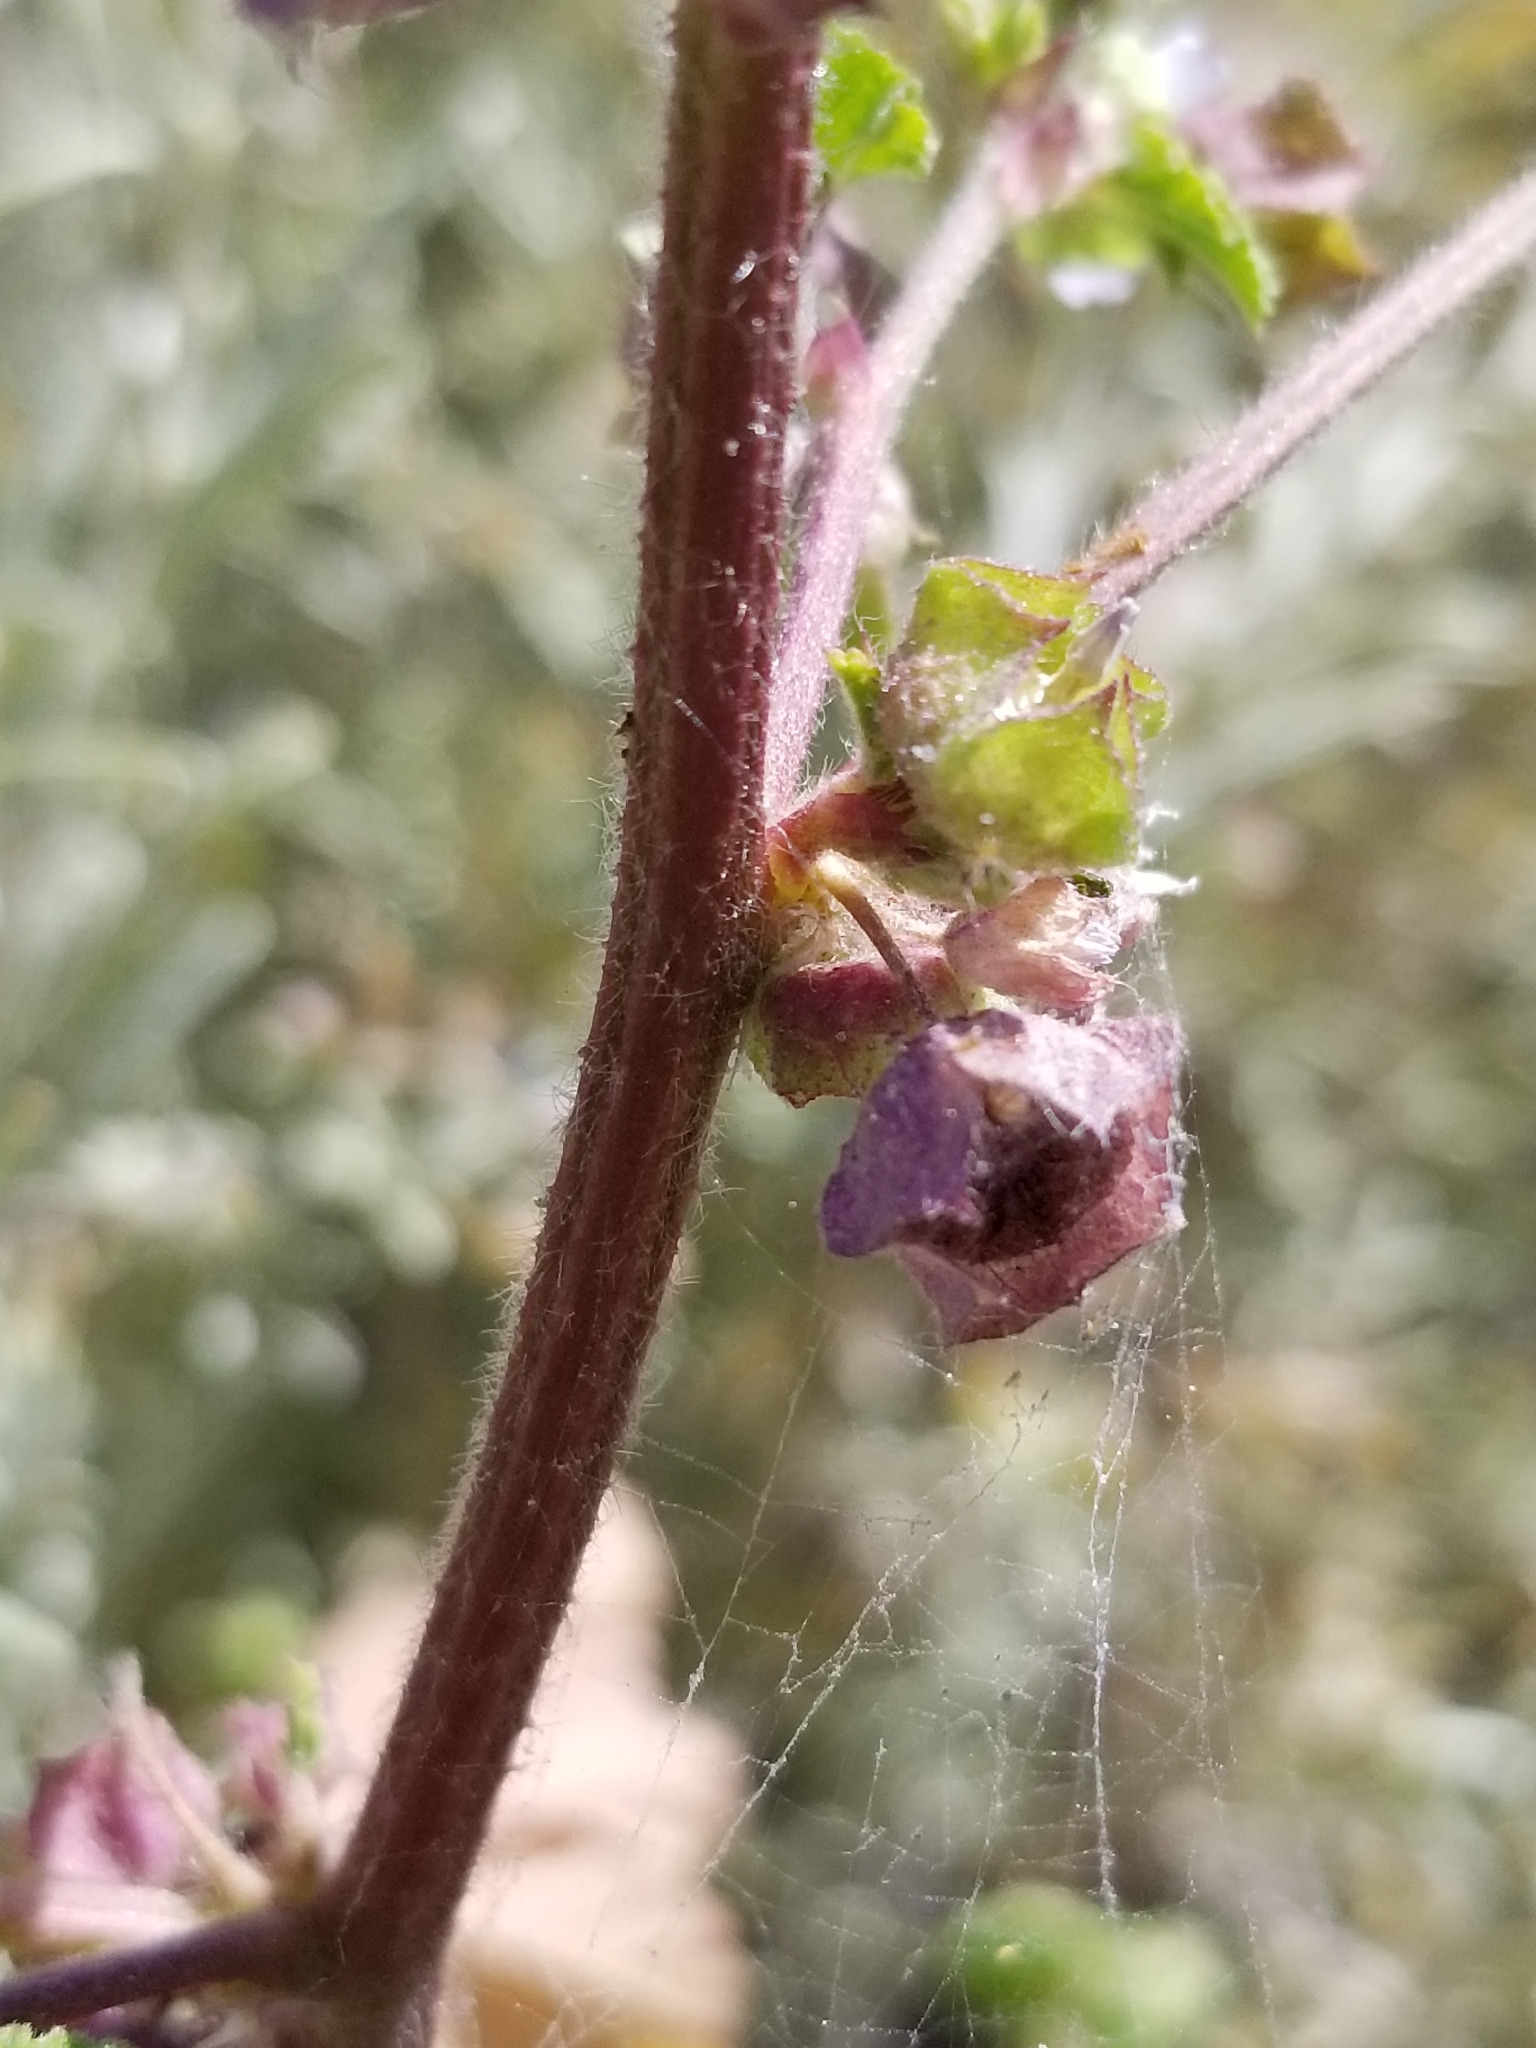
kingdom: Plantae
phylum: Tracheophyta
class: Magnoliopsida
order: Malvales
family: Malvaceae
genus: Malva
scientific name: Malva parviflora
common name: Least mallow
